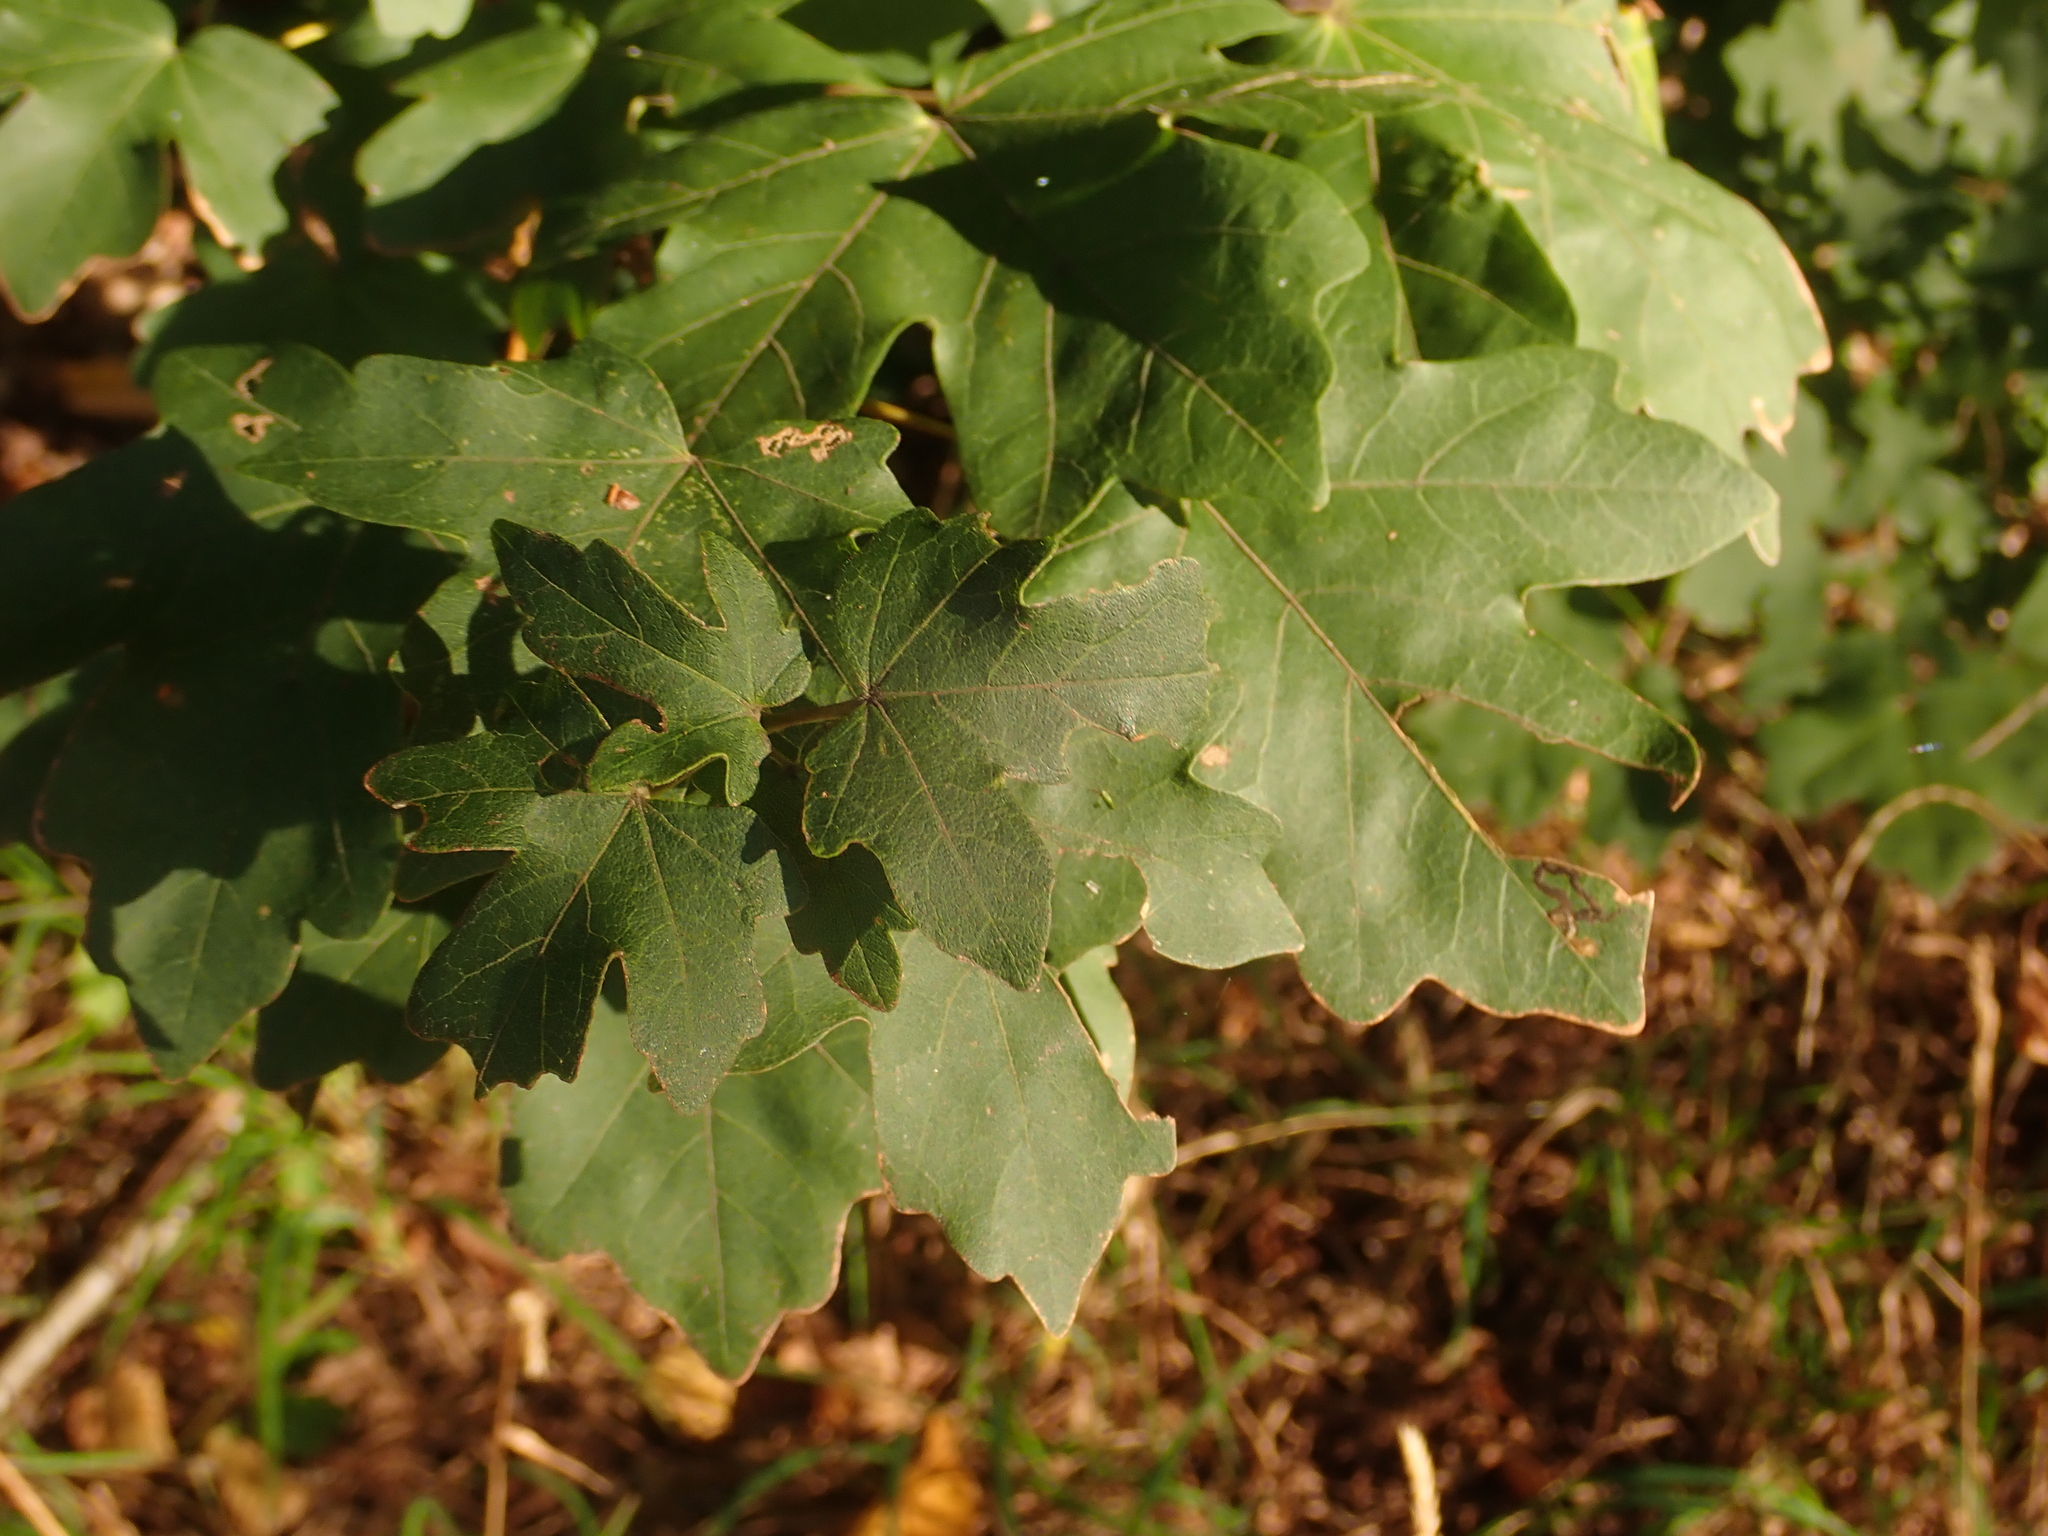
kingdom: Plantae
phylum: Tracheophyta
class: Magnoliopsida
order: Sapindales
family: Sapindaceae
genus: Acer
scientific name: Acer campestre
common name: Field maple
